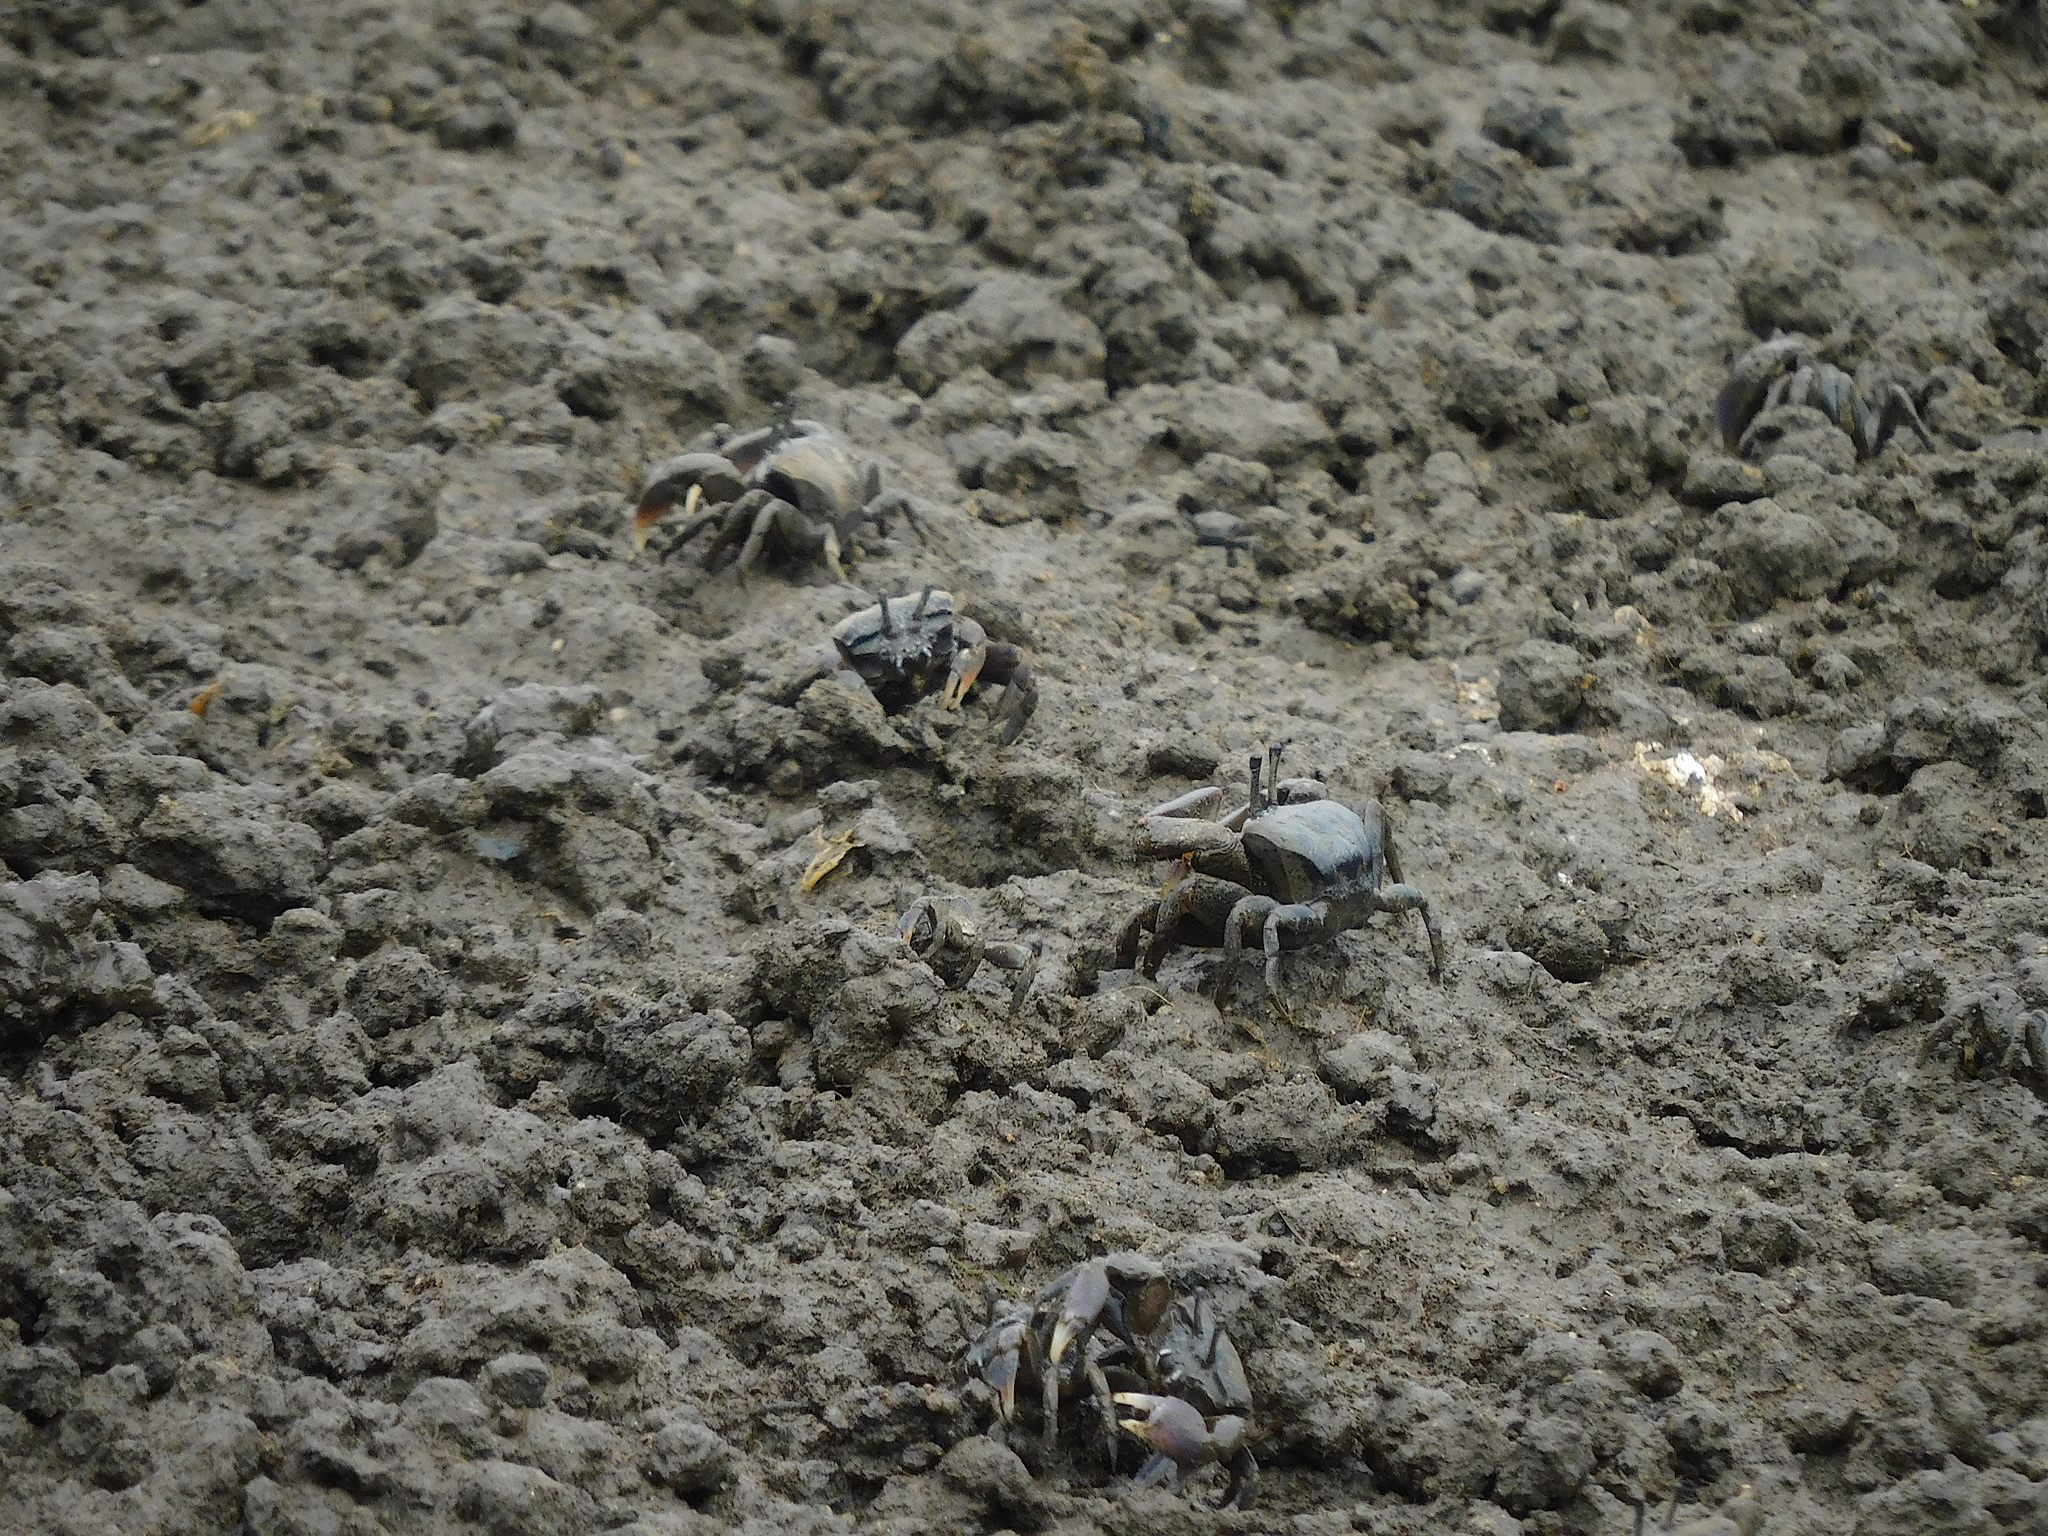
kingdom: Animalia
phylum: Arthropoda
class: Malacostraca
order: Decapoda
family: Heloeciidae
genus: Heloecius
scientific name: Heloecius cordiformis
